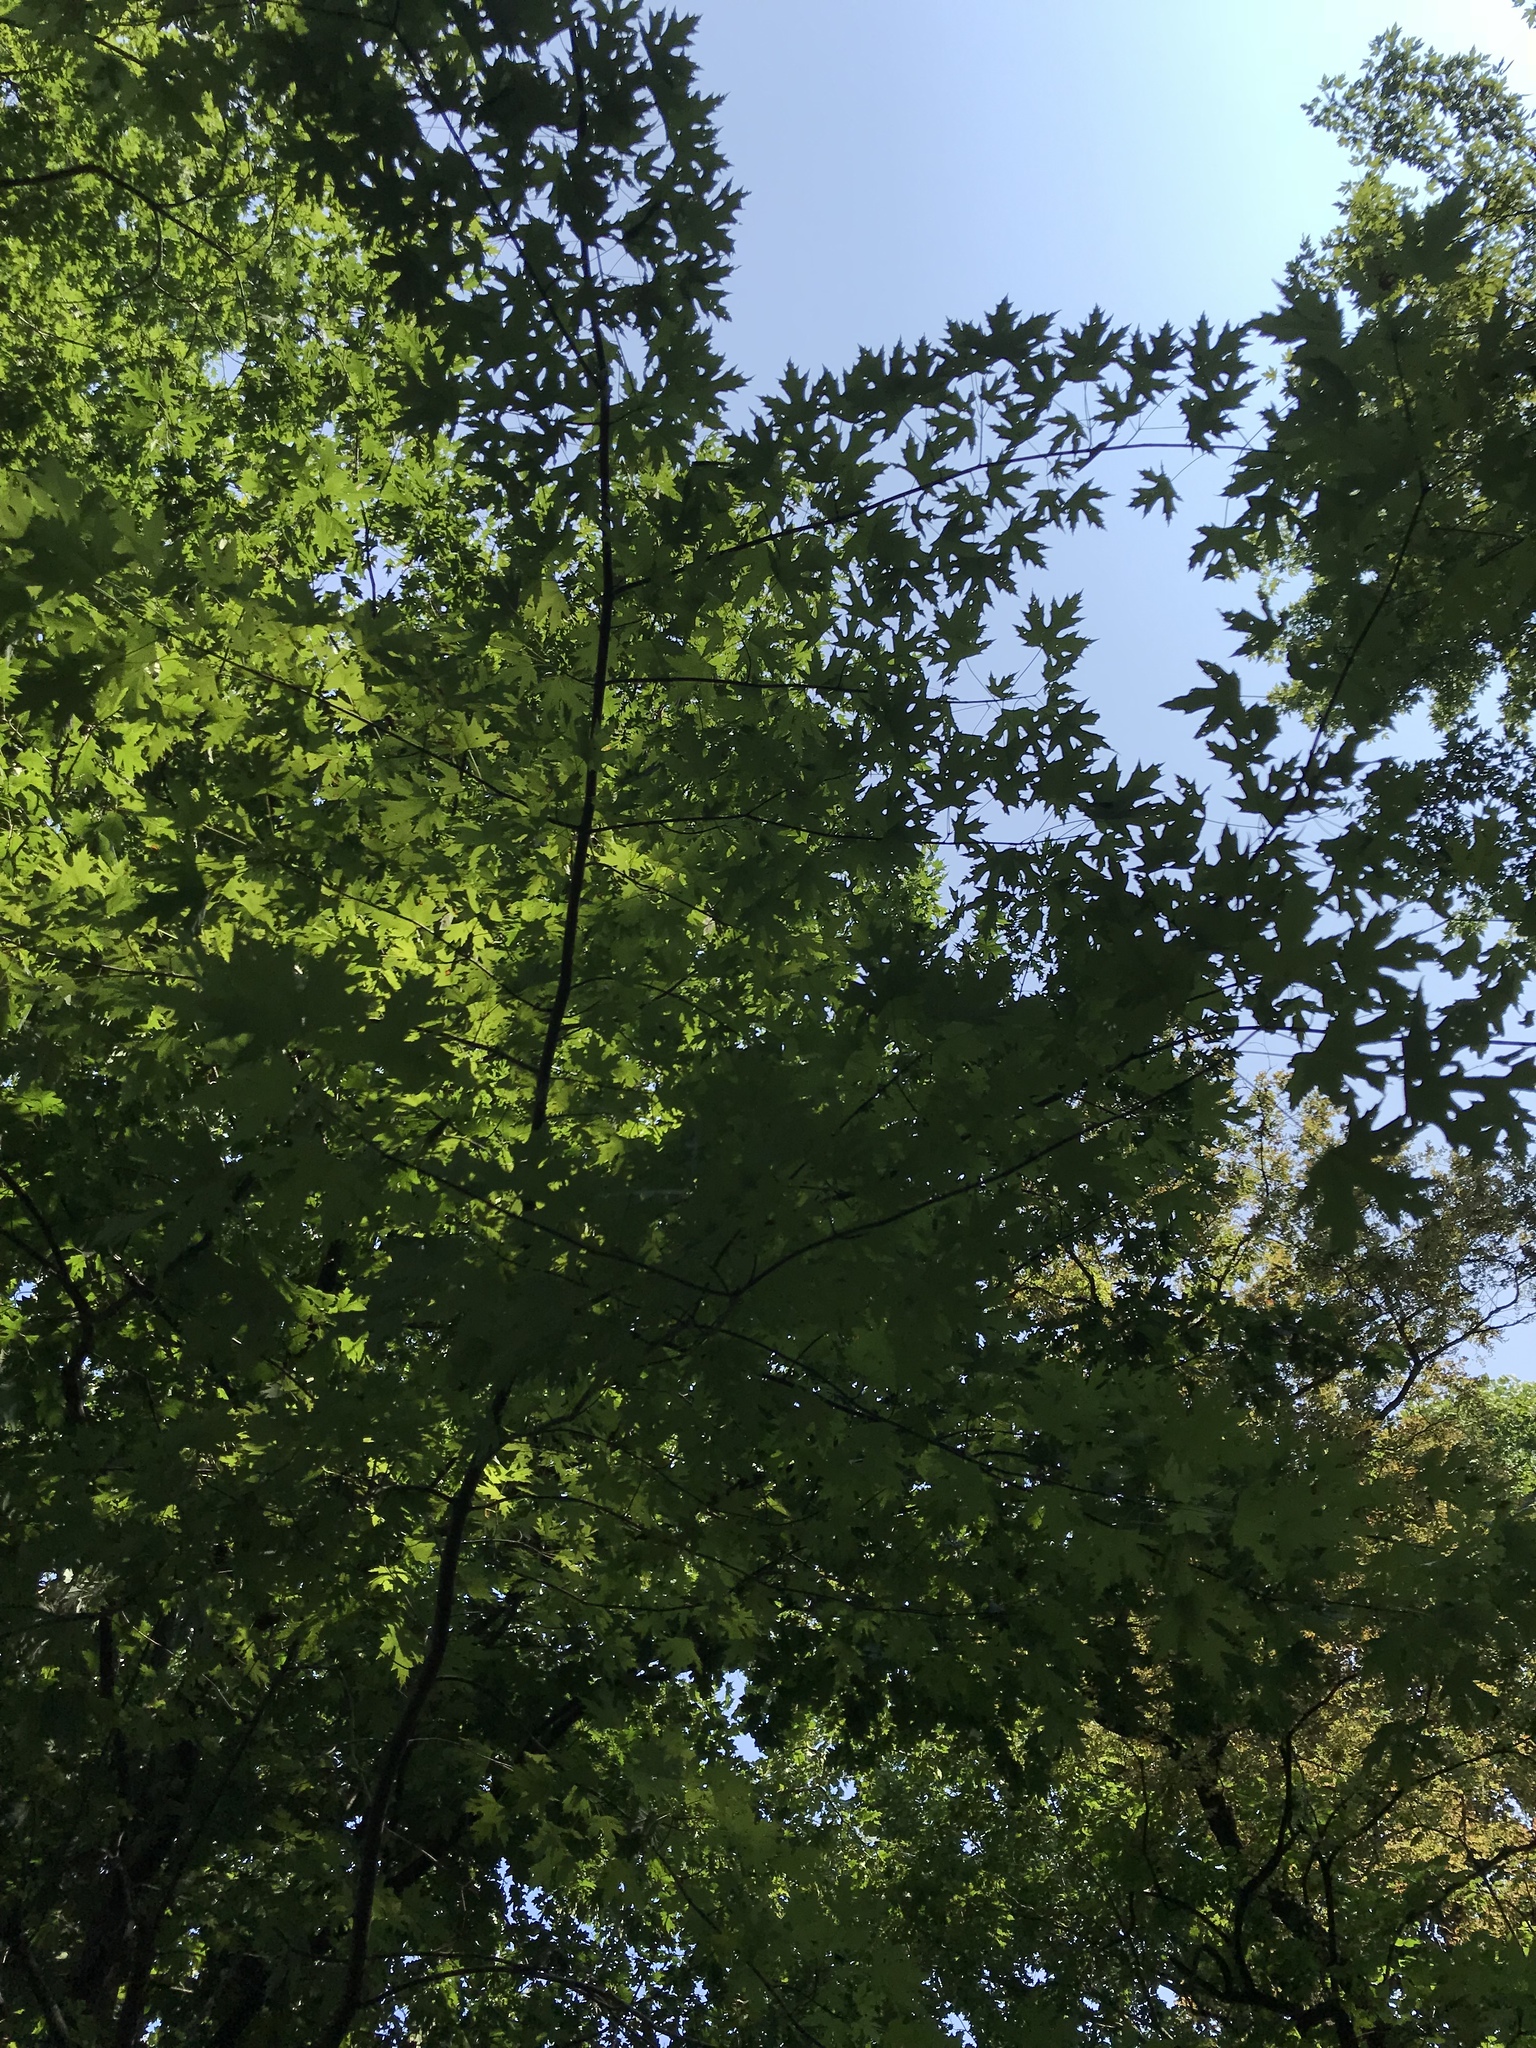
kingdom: Plantae
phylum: Tracheophyta
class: Magnoliopsida
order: Sapindales
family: Sapindaceae
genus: Acer
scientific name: Acer saccharinum
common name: Silver maple
